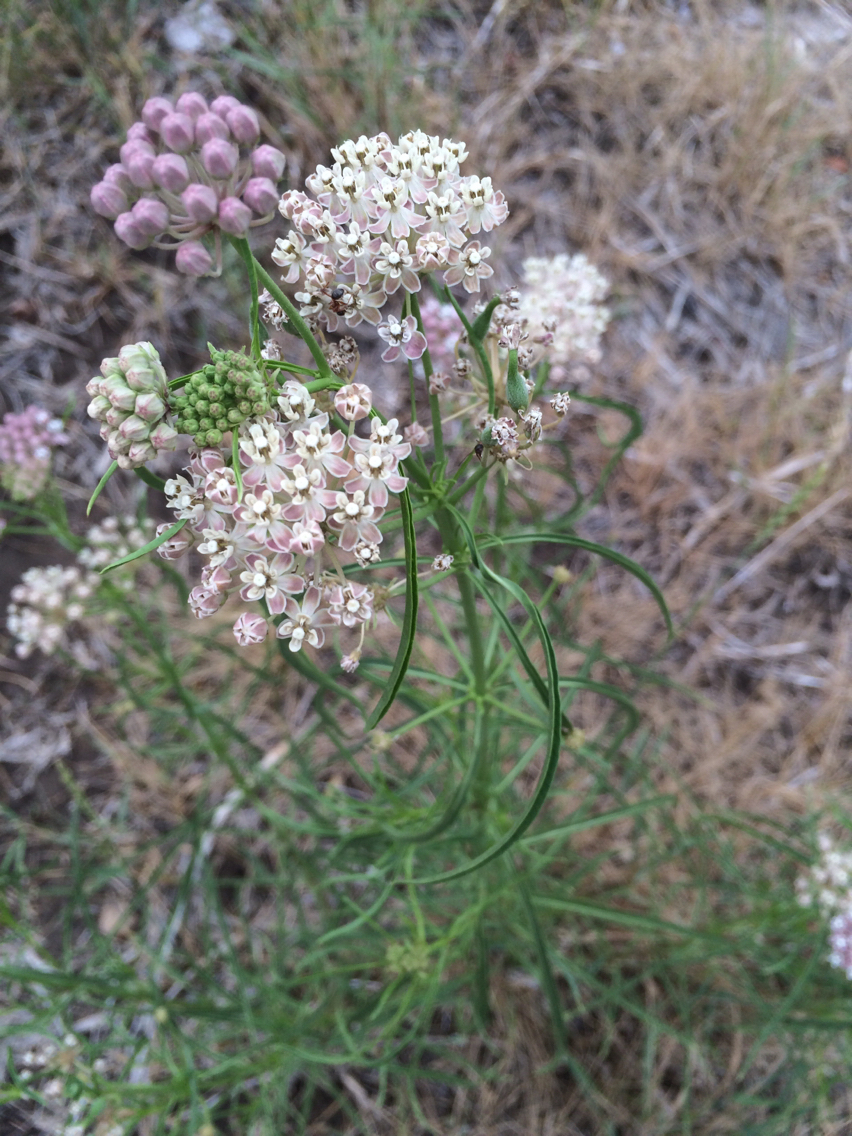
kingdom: Plantae
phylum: Tracheophyta
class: Magnoliopsida
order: Gentianales
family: Apocynaceae
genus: Asclepias
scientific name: Asclepias fascicularis
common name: Mexican milkweed
